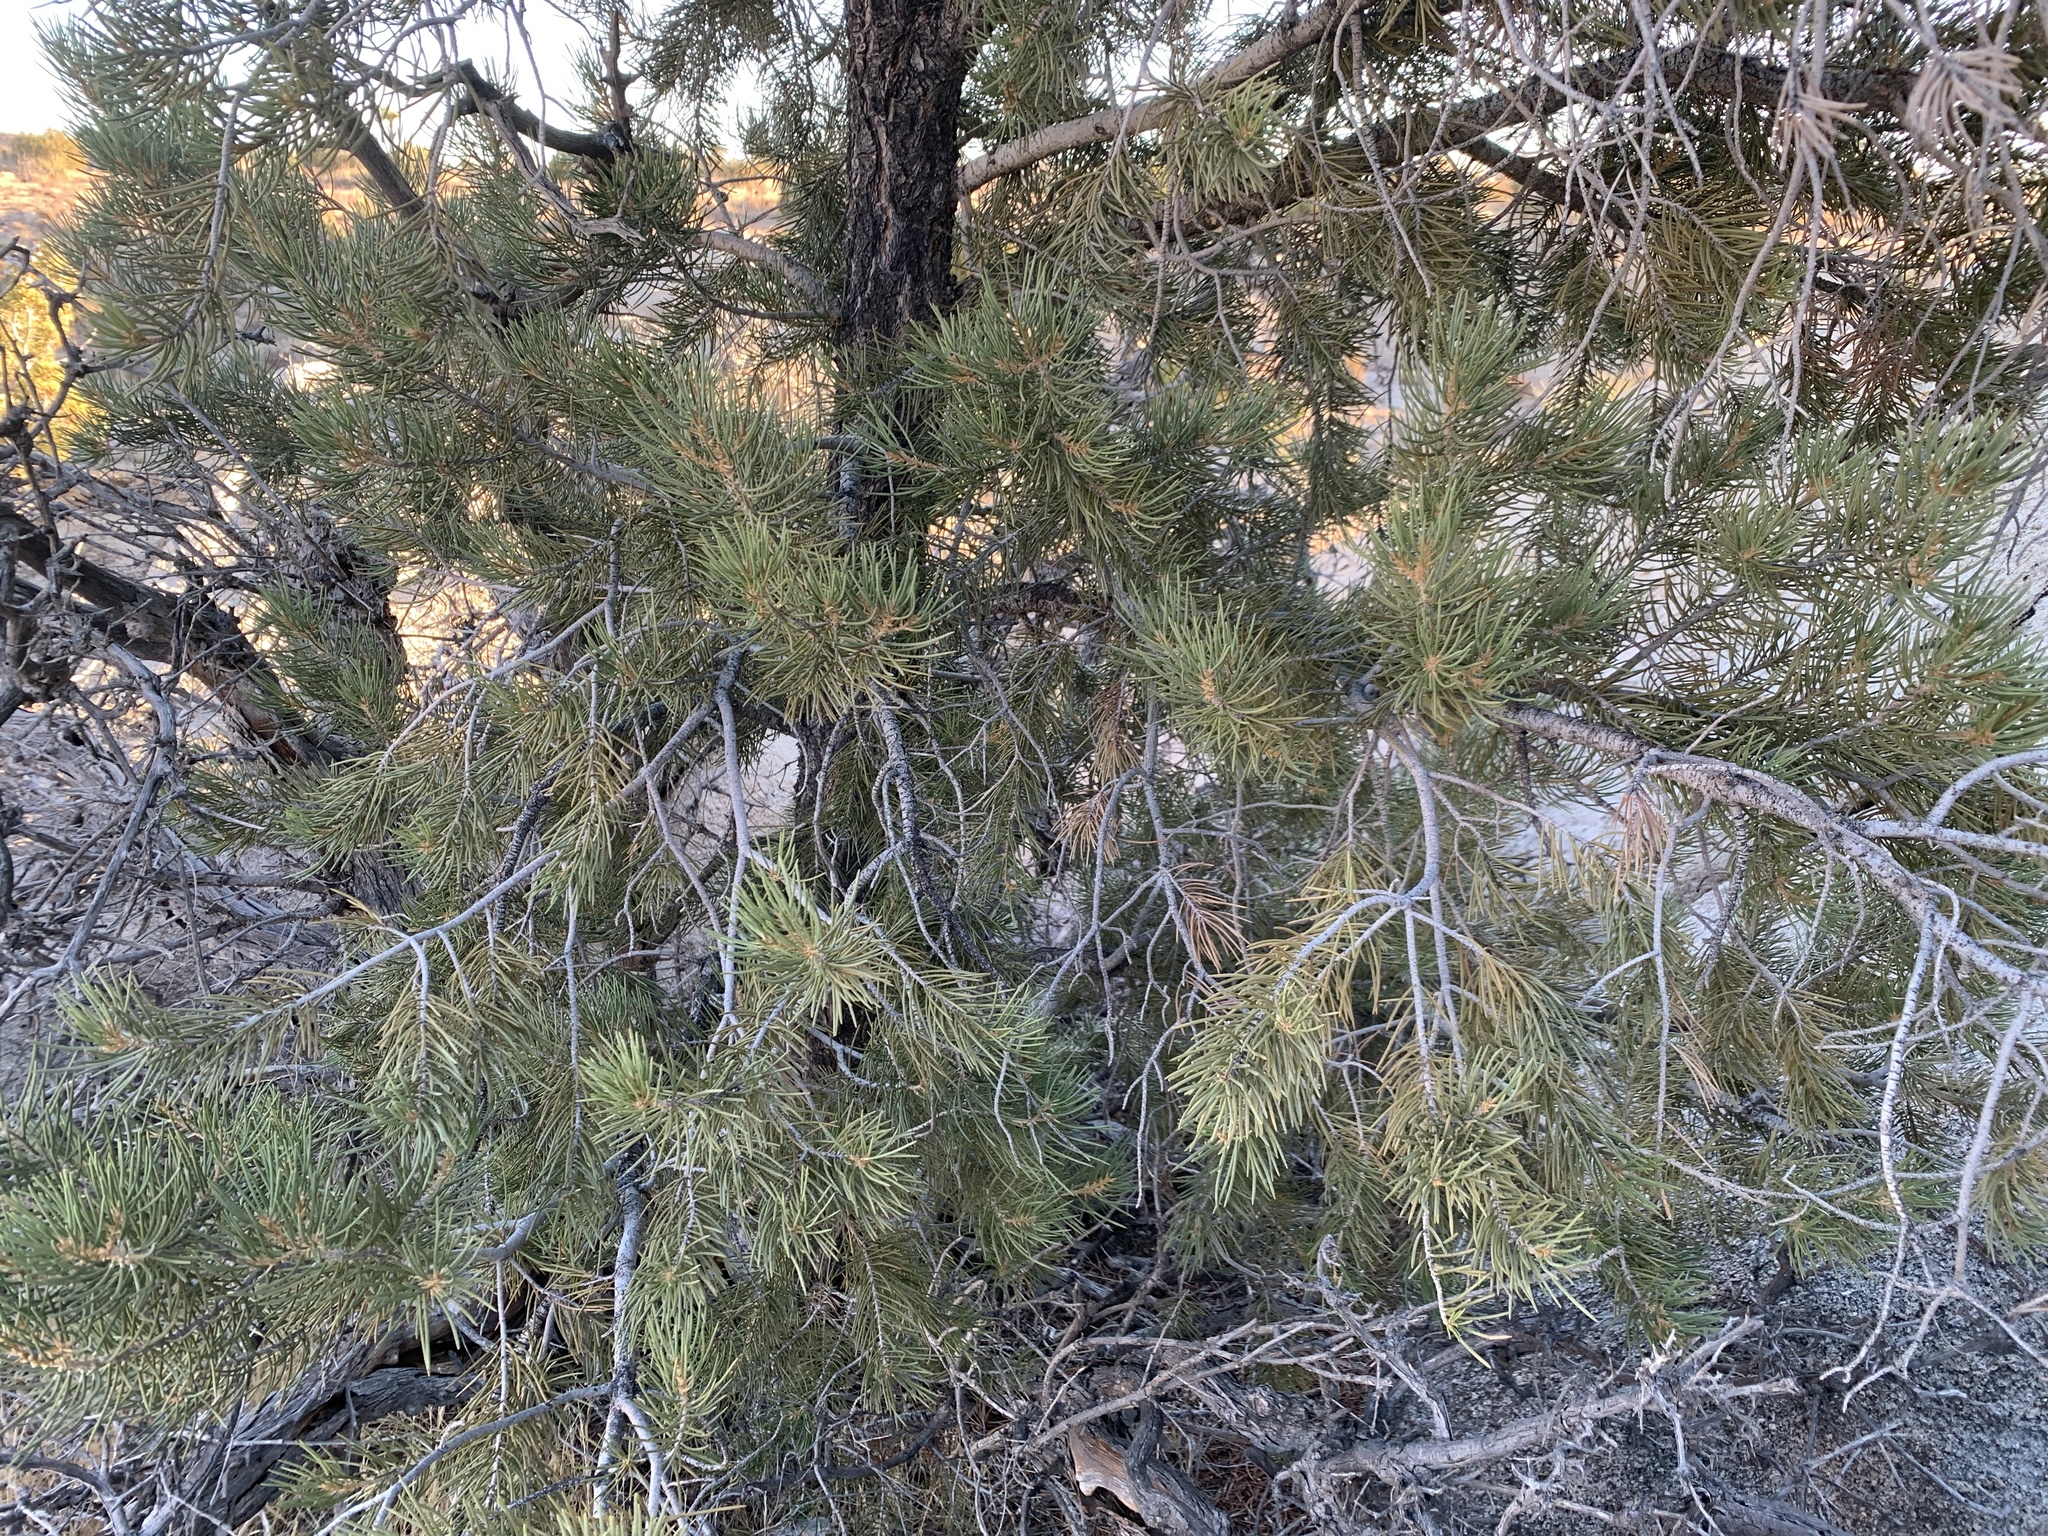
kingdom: Plantae
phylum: Tracheophyta
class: Pinopsida
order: Pinales
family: Pinaceae
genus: Pinus
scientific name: Pinus monophylla
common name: One-leaved nut pine
